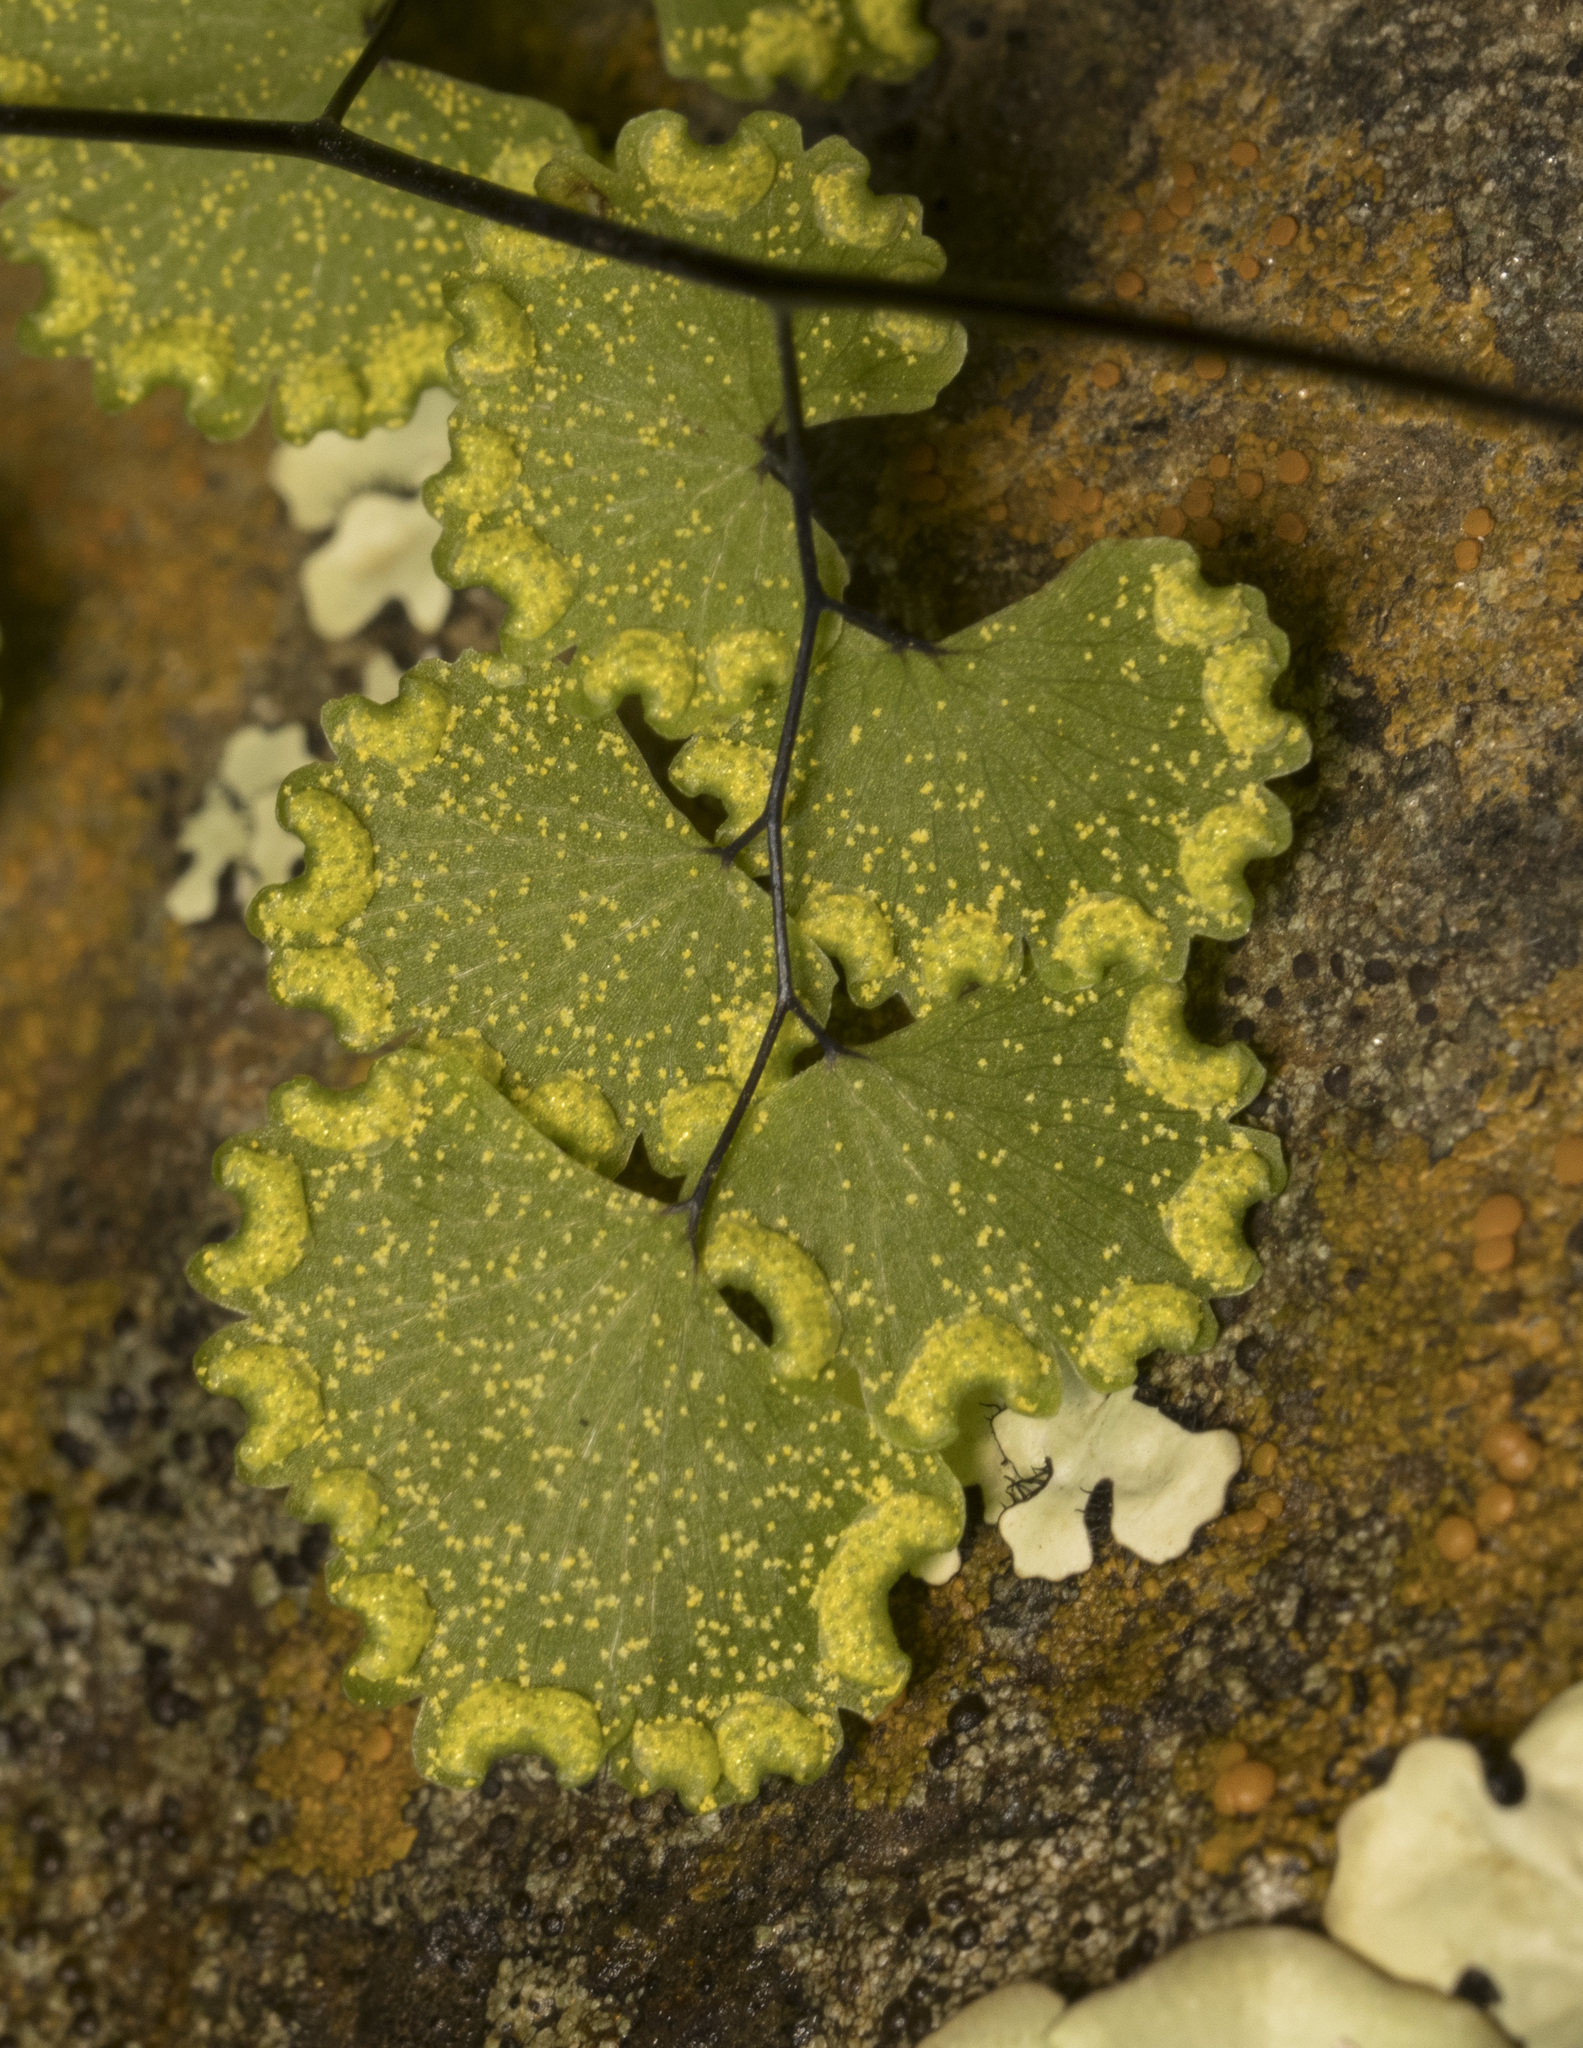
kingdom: Plantae
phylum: Tracheophyta
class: Polypodiopsida
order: Polypodiales
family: Pteridaceae
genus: Adiantum
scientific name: Adiantum sulphureum
